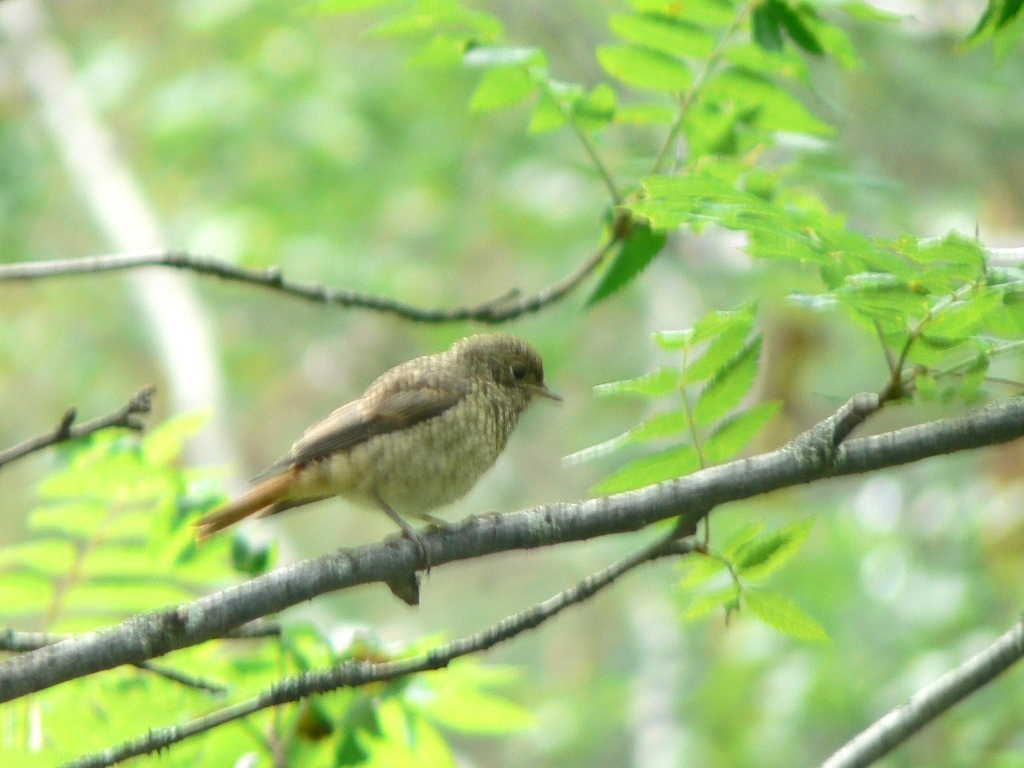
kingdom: Animalia
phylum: Chordata
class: Aves
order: Passeriformes
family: Muscicapidae
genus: Phoenicurus
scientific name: Phoenicurus phoenicurus
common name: Common redstart
